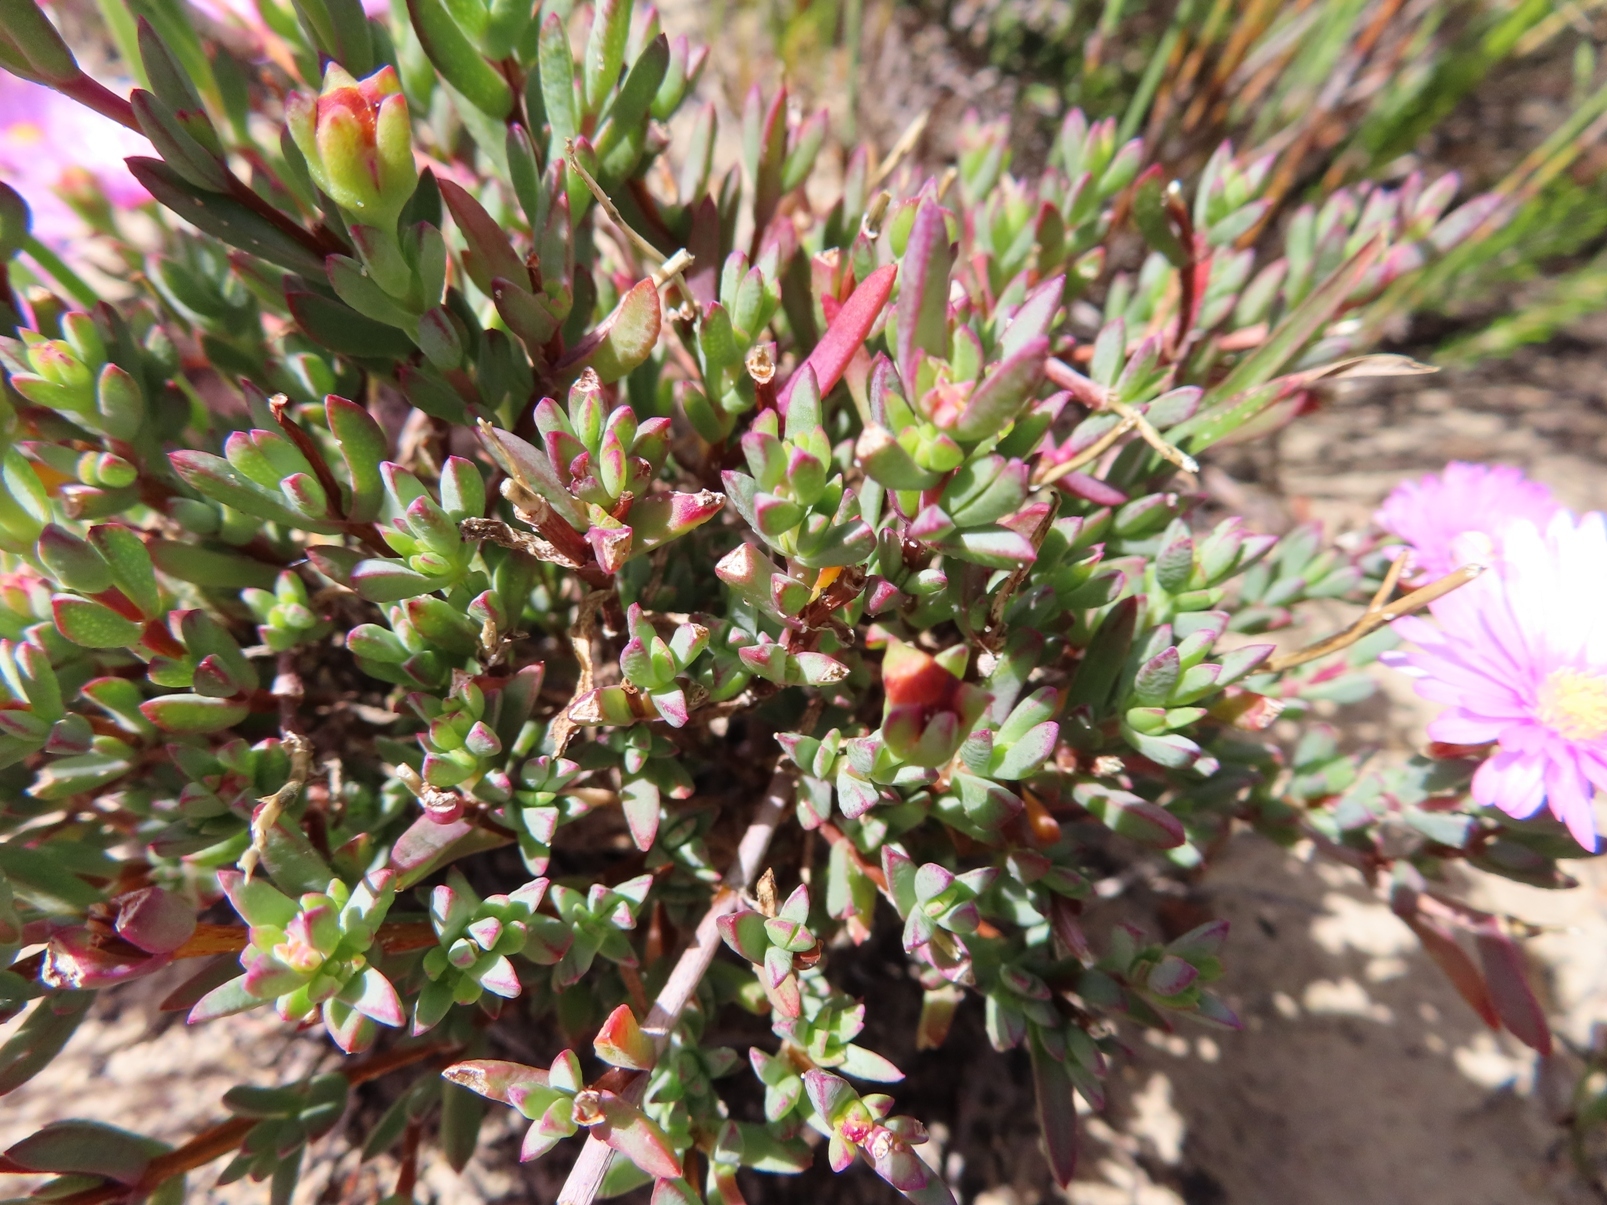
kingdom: Plantae
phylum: Tracheophyta
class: Magnoliopsida
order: Caryophyllales
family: Aizoaceae
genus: Lampranthus
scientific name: Lampranthus ceriseus
